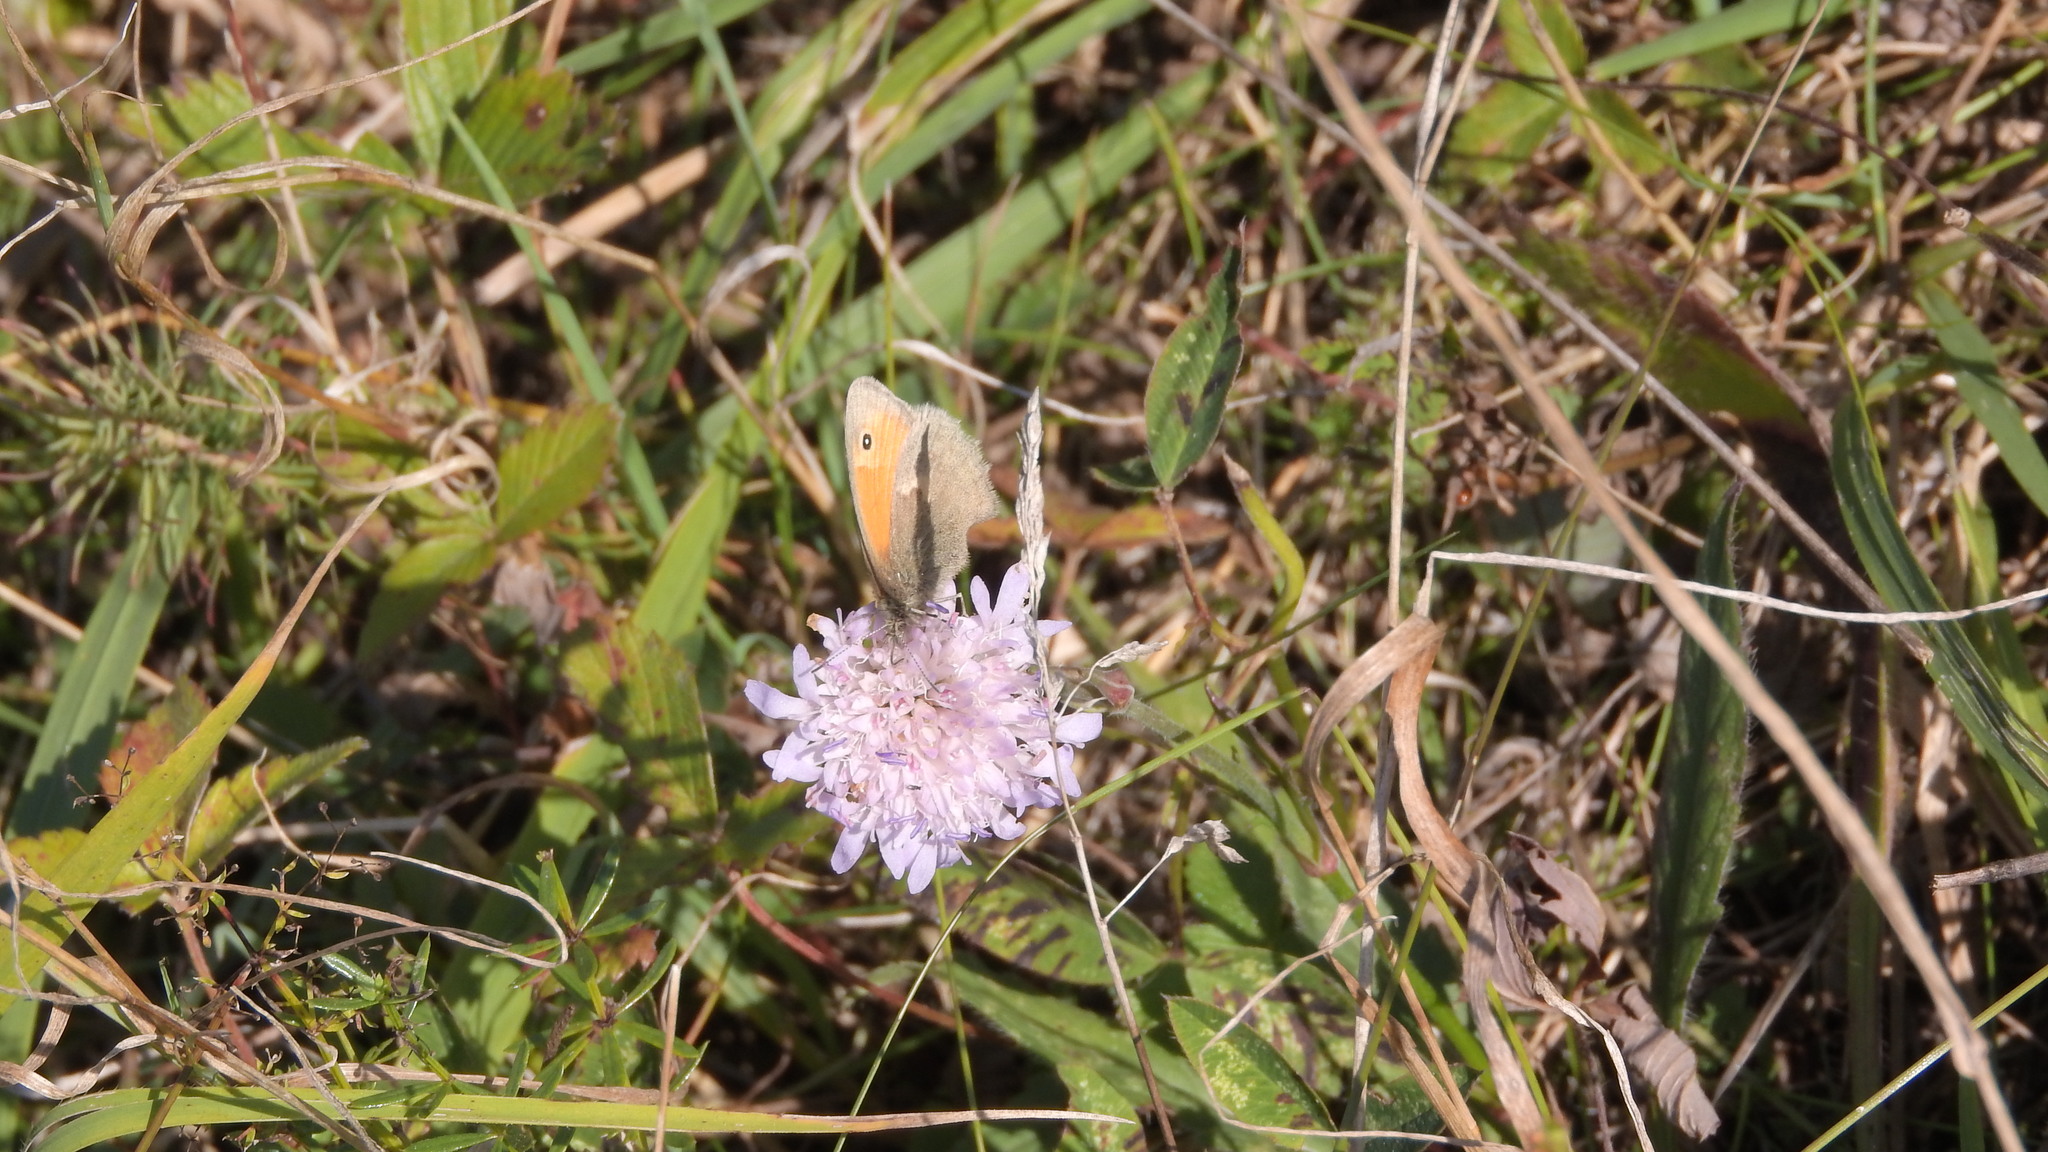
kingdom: Animalia
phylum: Arthropoda
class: Insecta
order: Lepidoptera
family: Nymphalidae
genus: Coenonympha
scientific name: Coenonympha pamphilus
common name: Small heath
